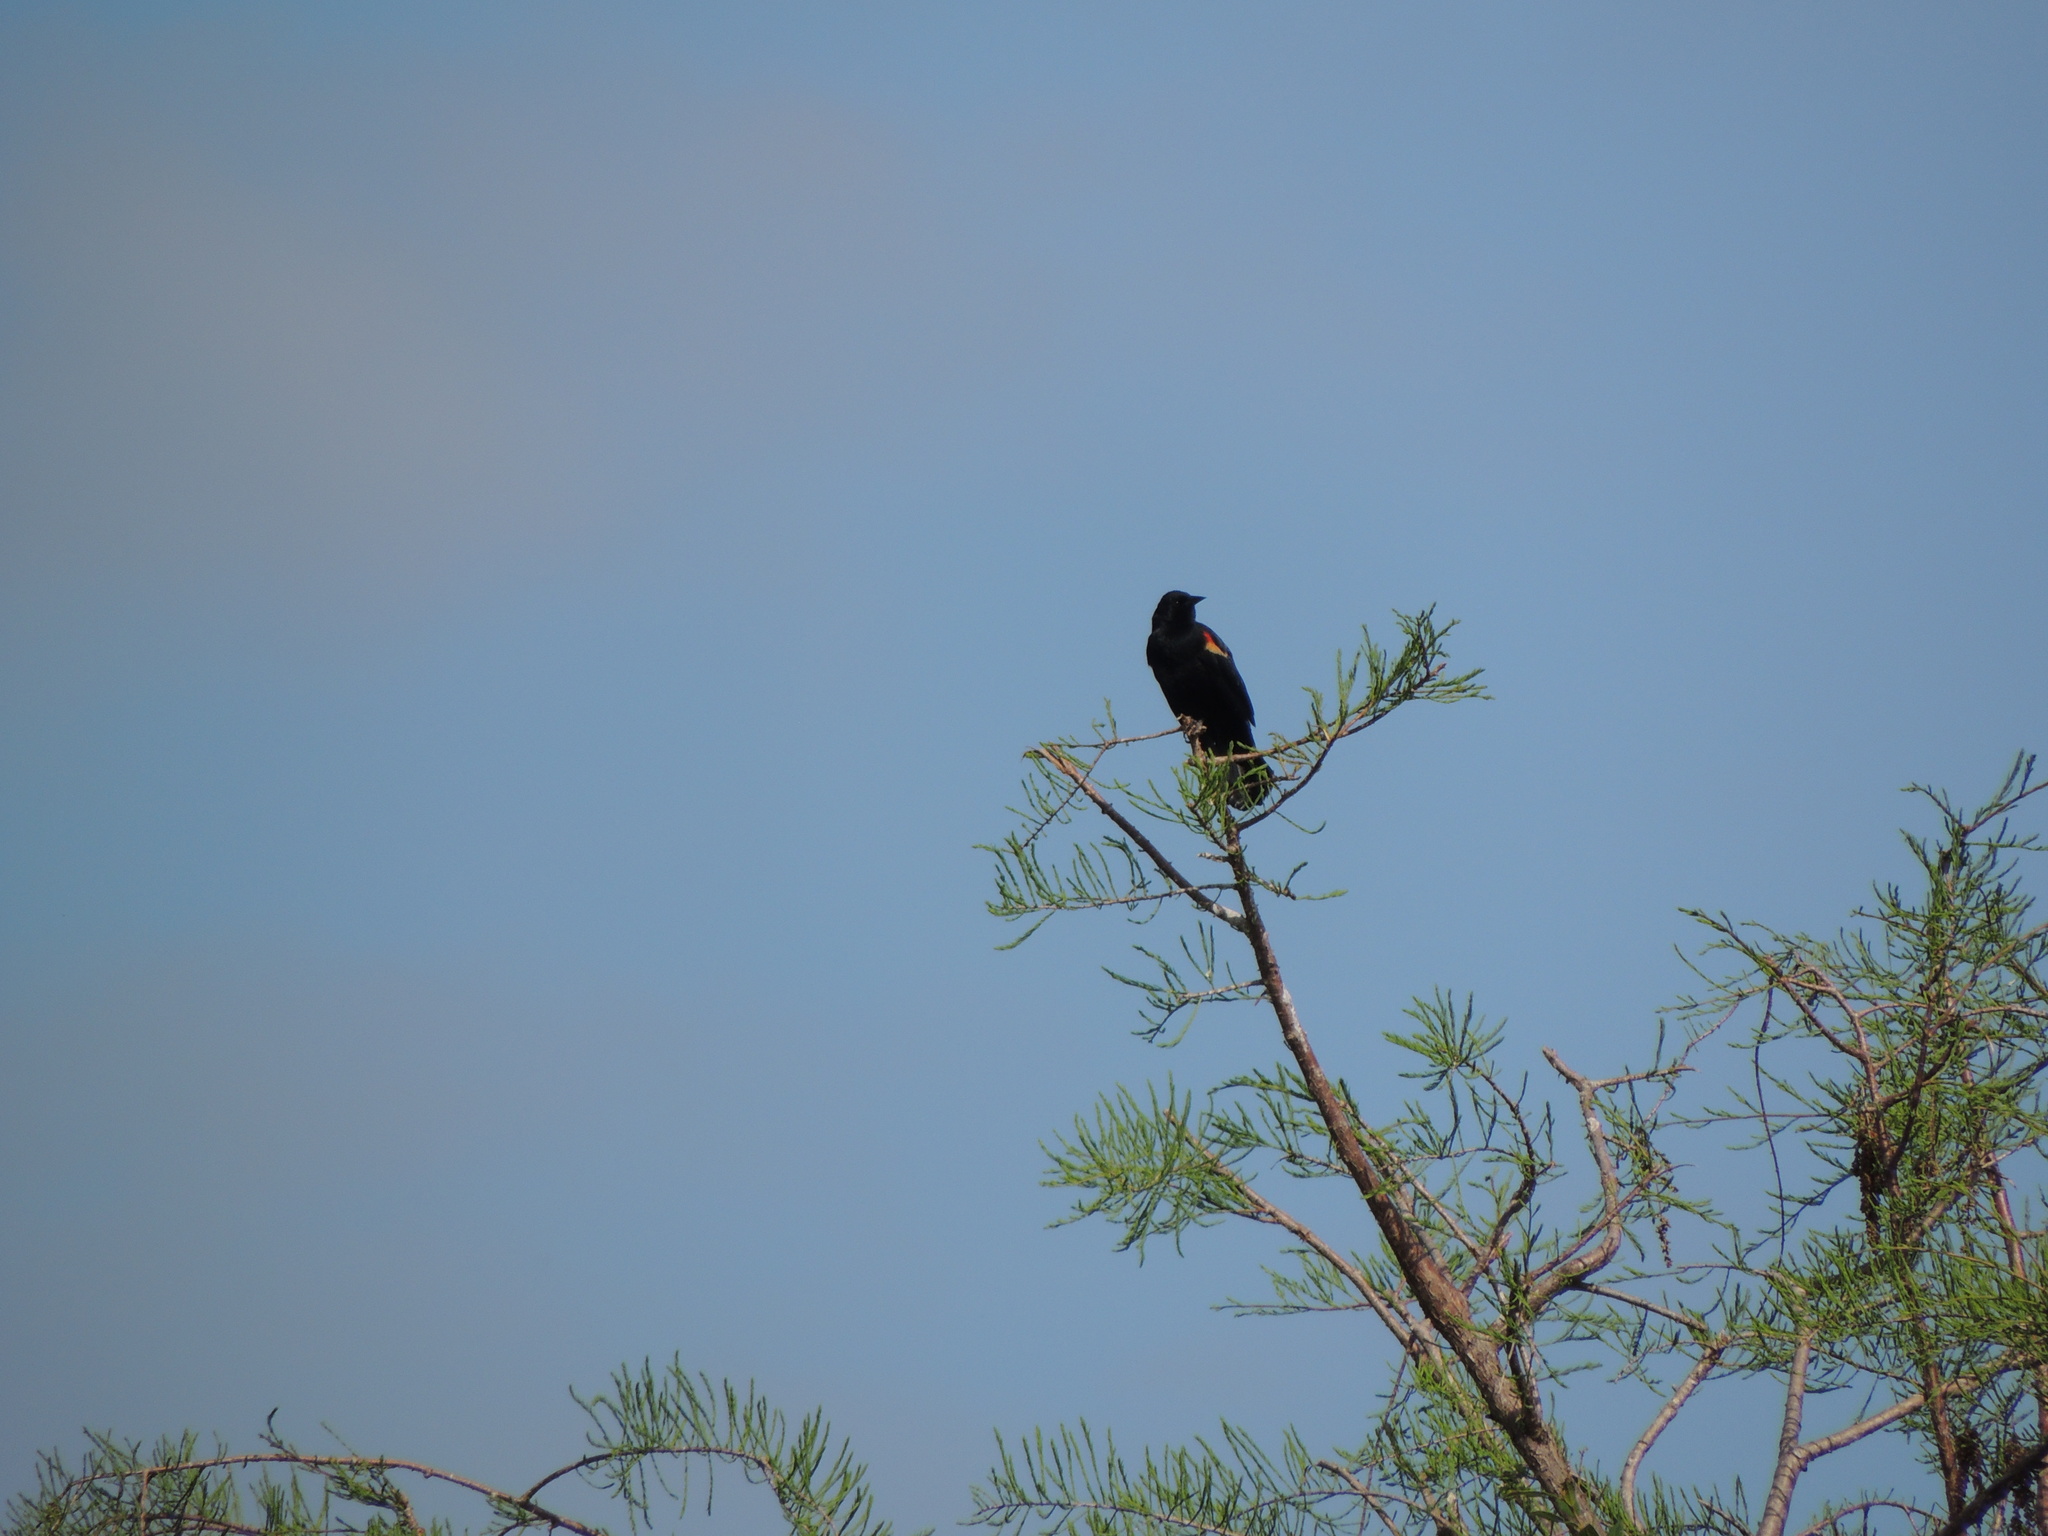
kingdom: Animalia
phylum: Chordata
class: Aves
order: Passeriformes
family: Icteridae
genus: Agelaius
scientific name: Agelaius phoeniceus
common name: Red-winged blackbird
